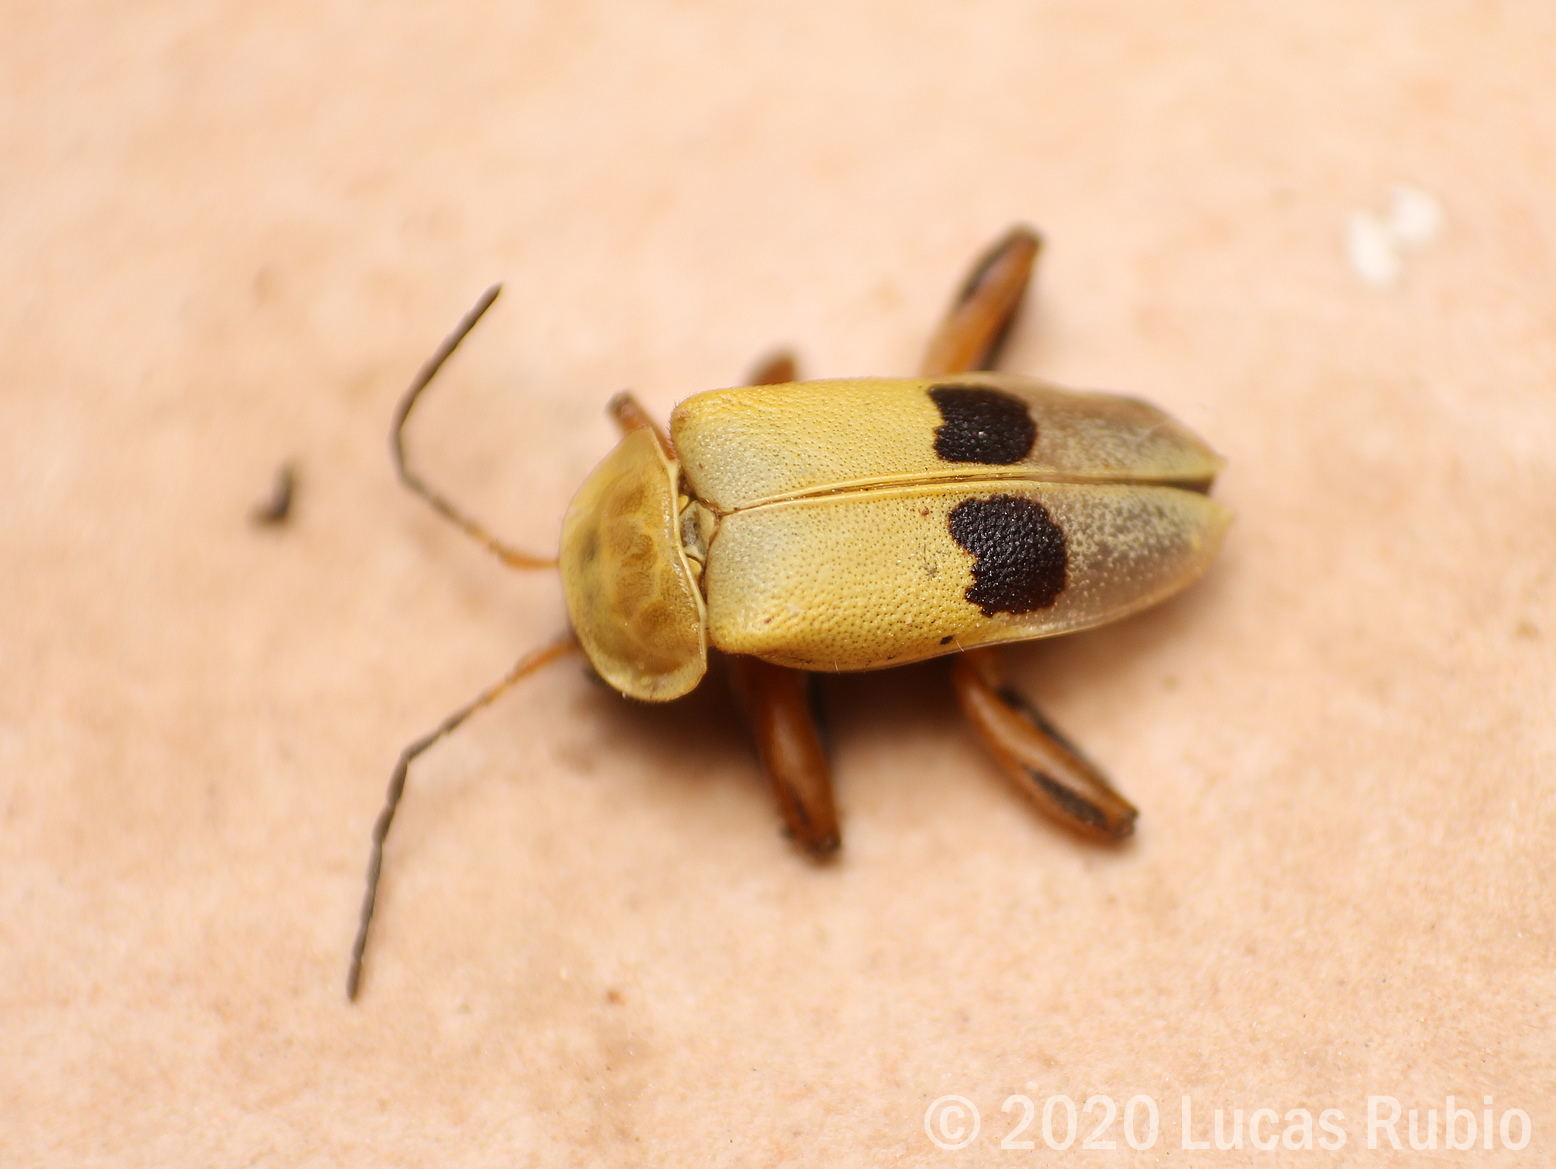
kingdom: Animalia
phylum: Arthropoda
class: Insecta
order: Coleoptera
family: Cantharidae
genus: Chauliognathus
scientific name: Chauliognathus
